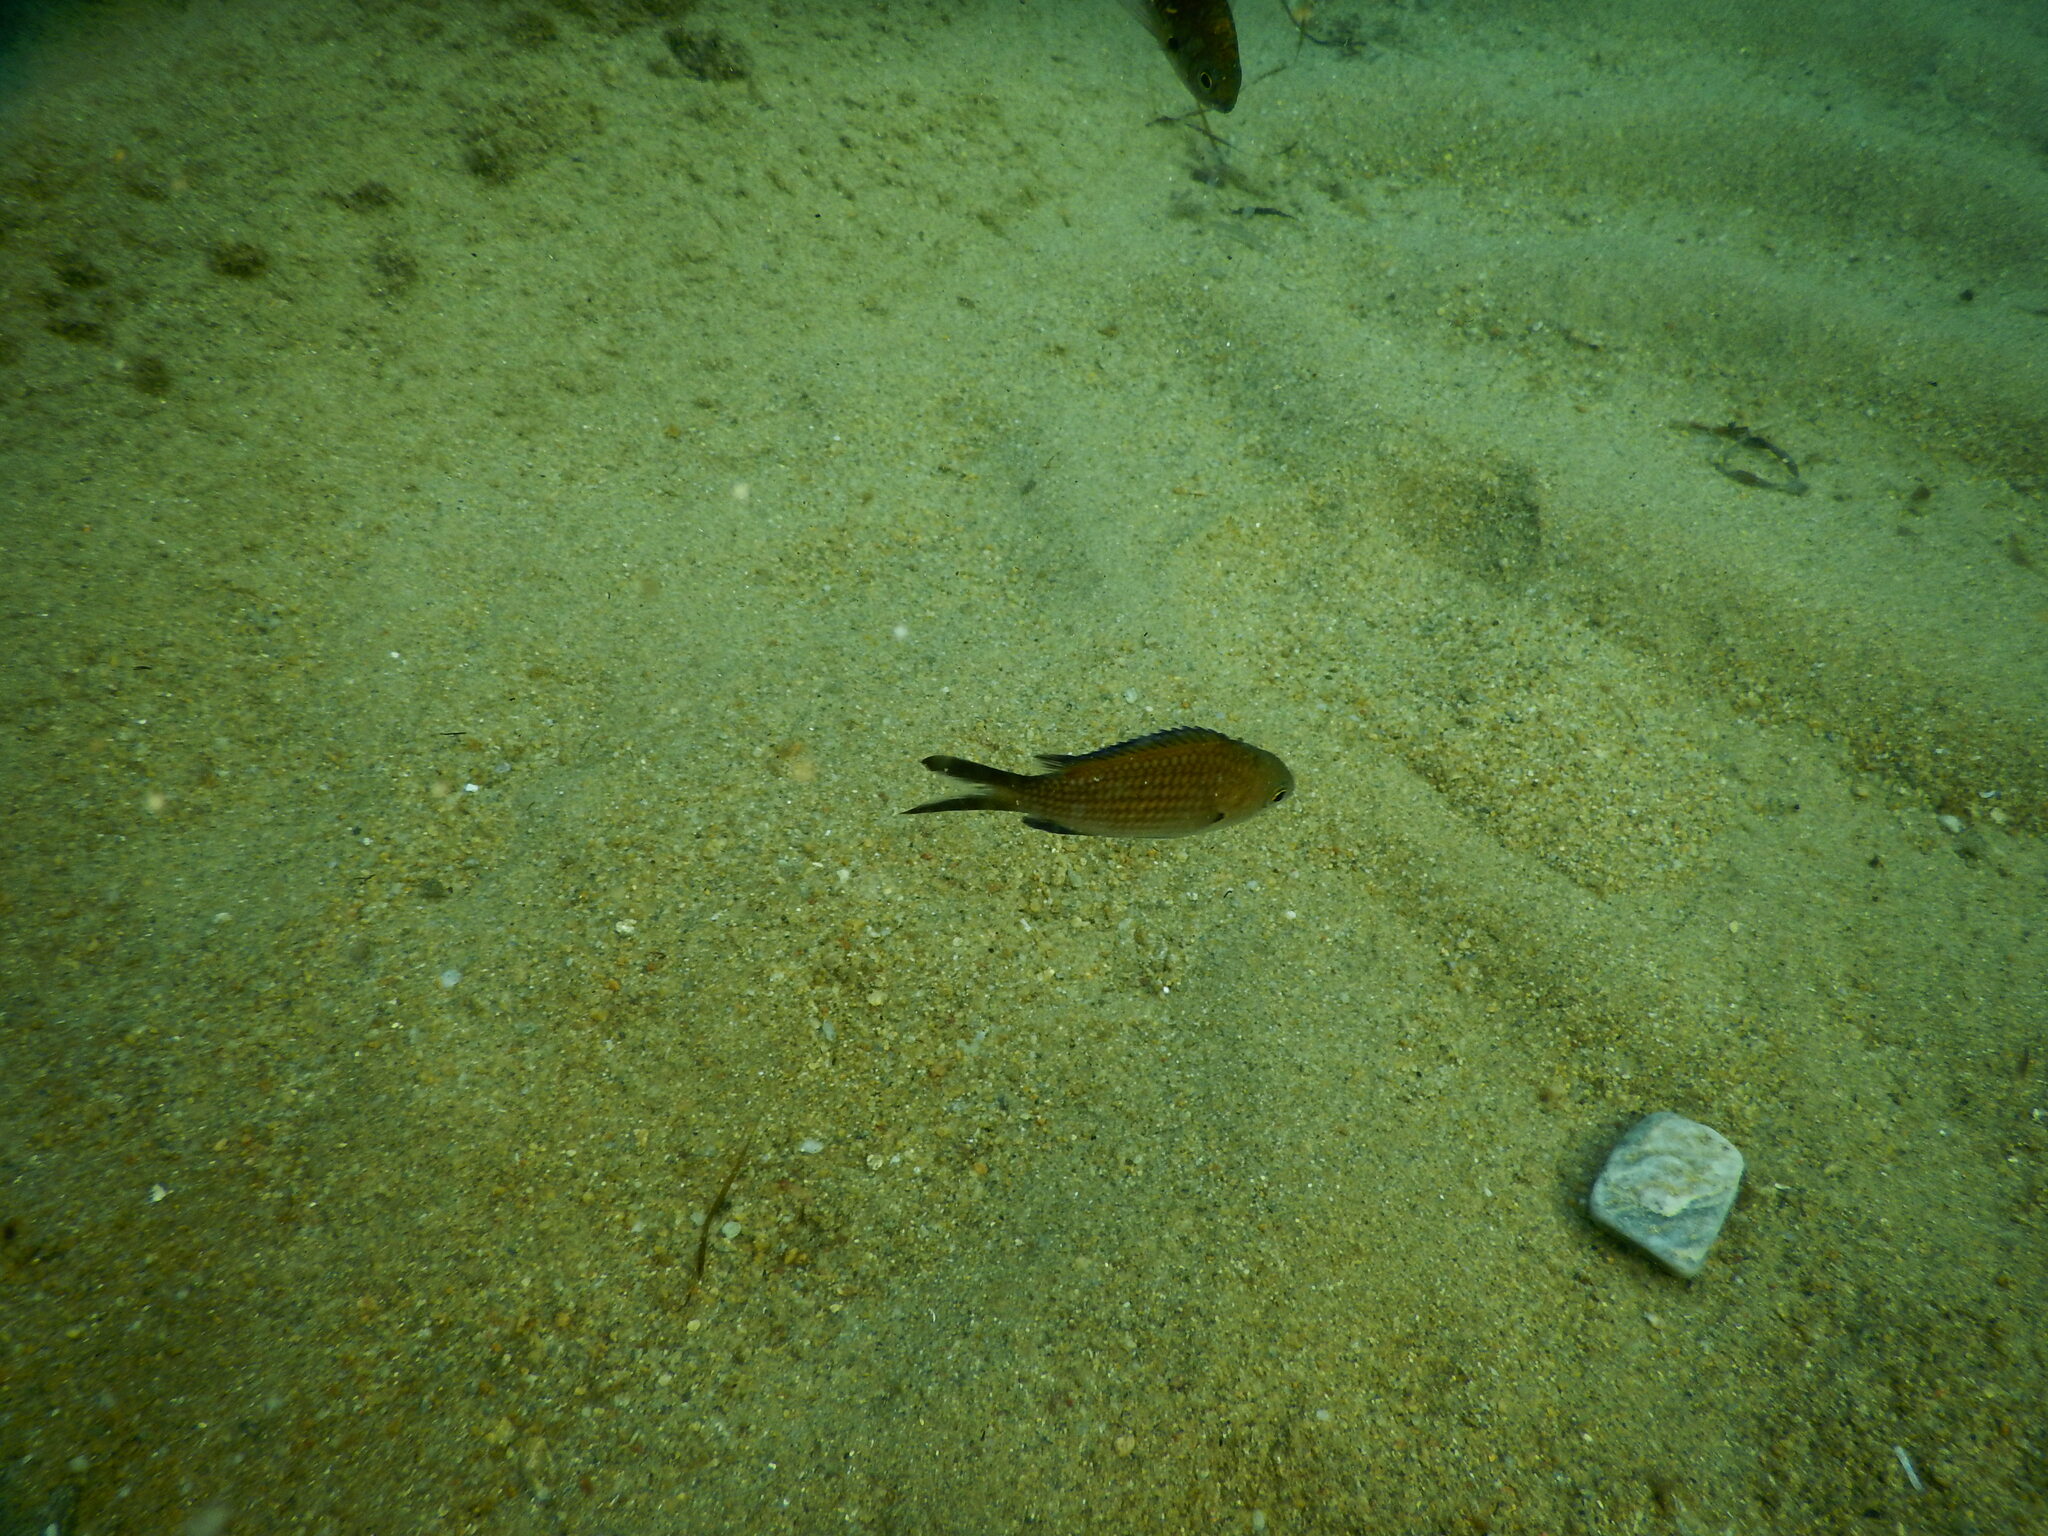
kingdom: Animalia
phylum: Chordata
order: Perciformes
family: Pomacentridae
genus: Chromis
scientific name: Chromis chromis
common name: Damselfish
